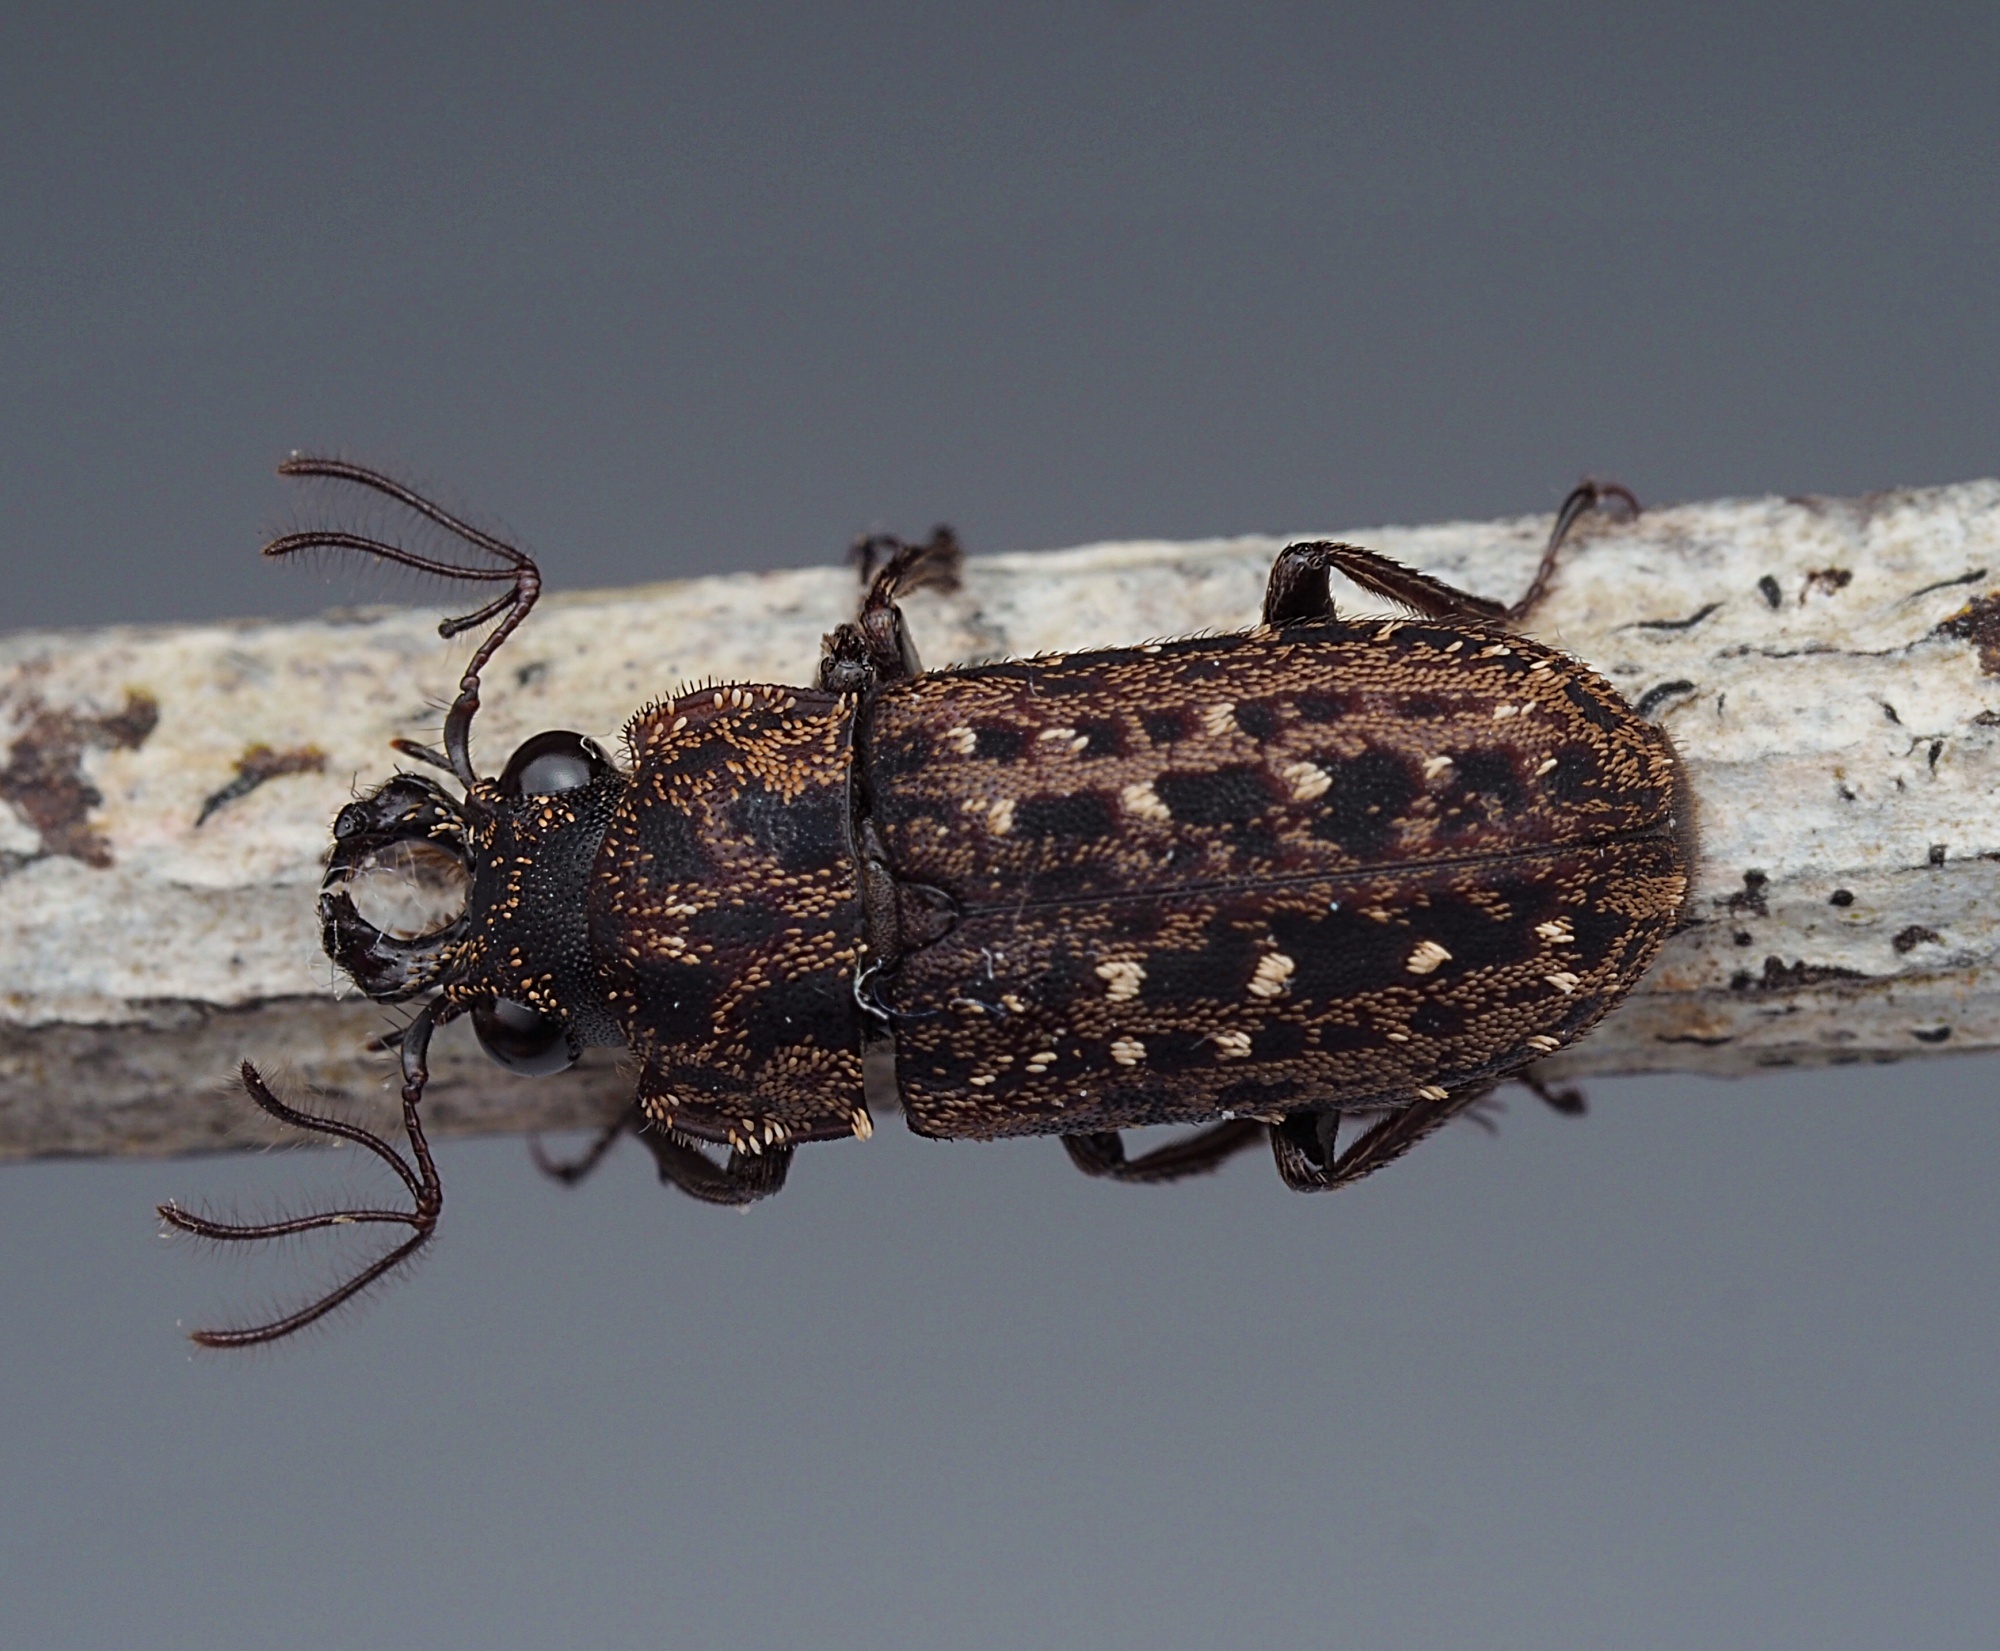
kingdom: Animalia
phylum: Arthropoda
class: Insecta
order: Coleoptera
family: Lucanidae
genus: Mitophyllus
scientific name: Mitophyllus arcuatus
